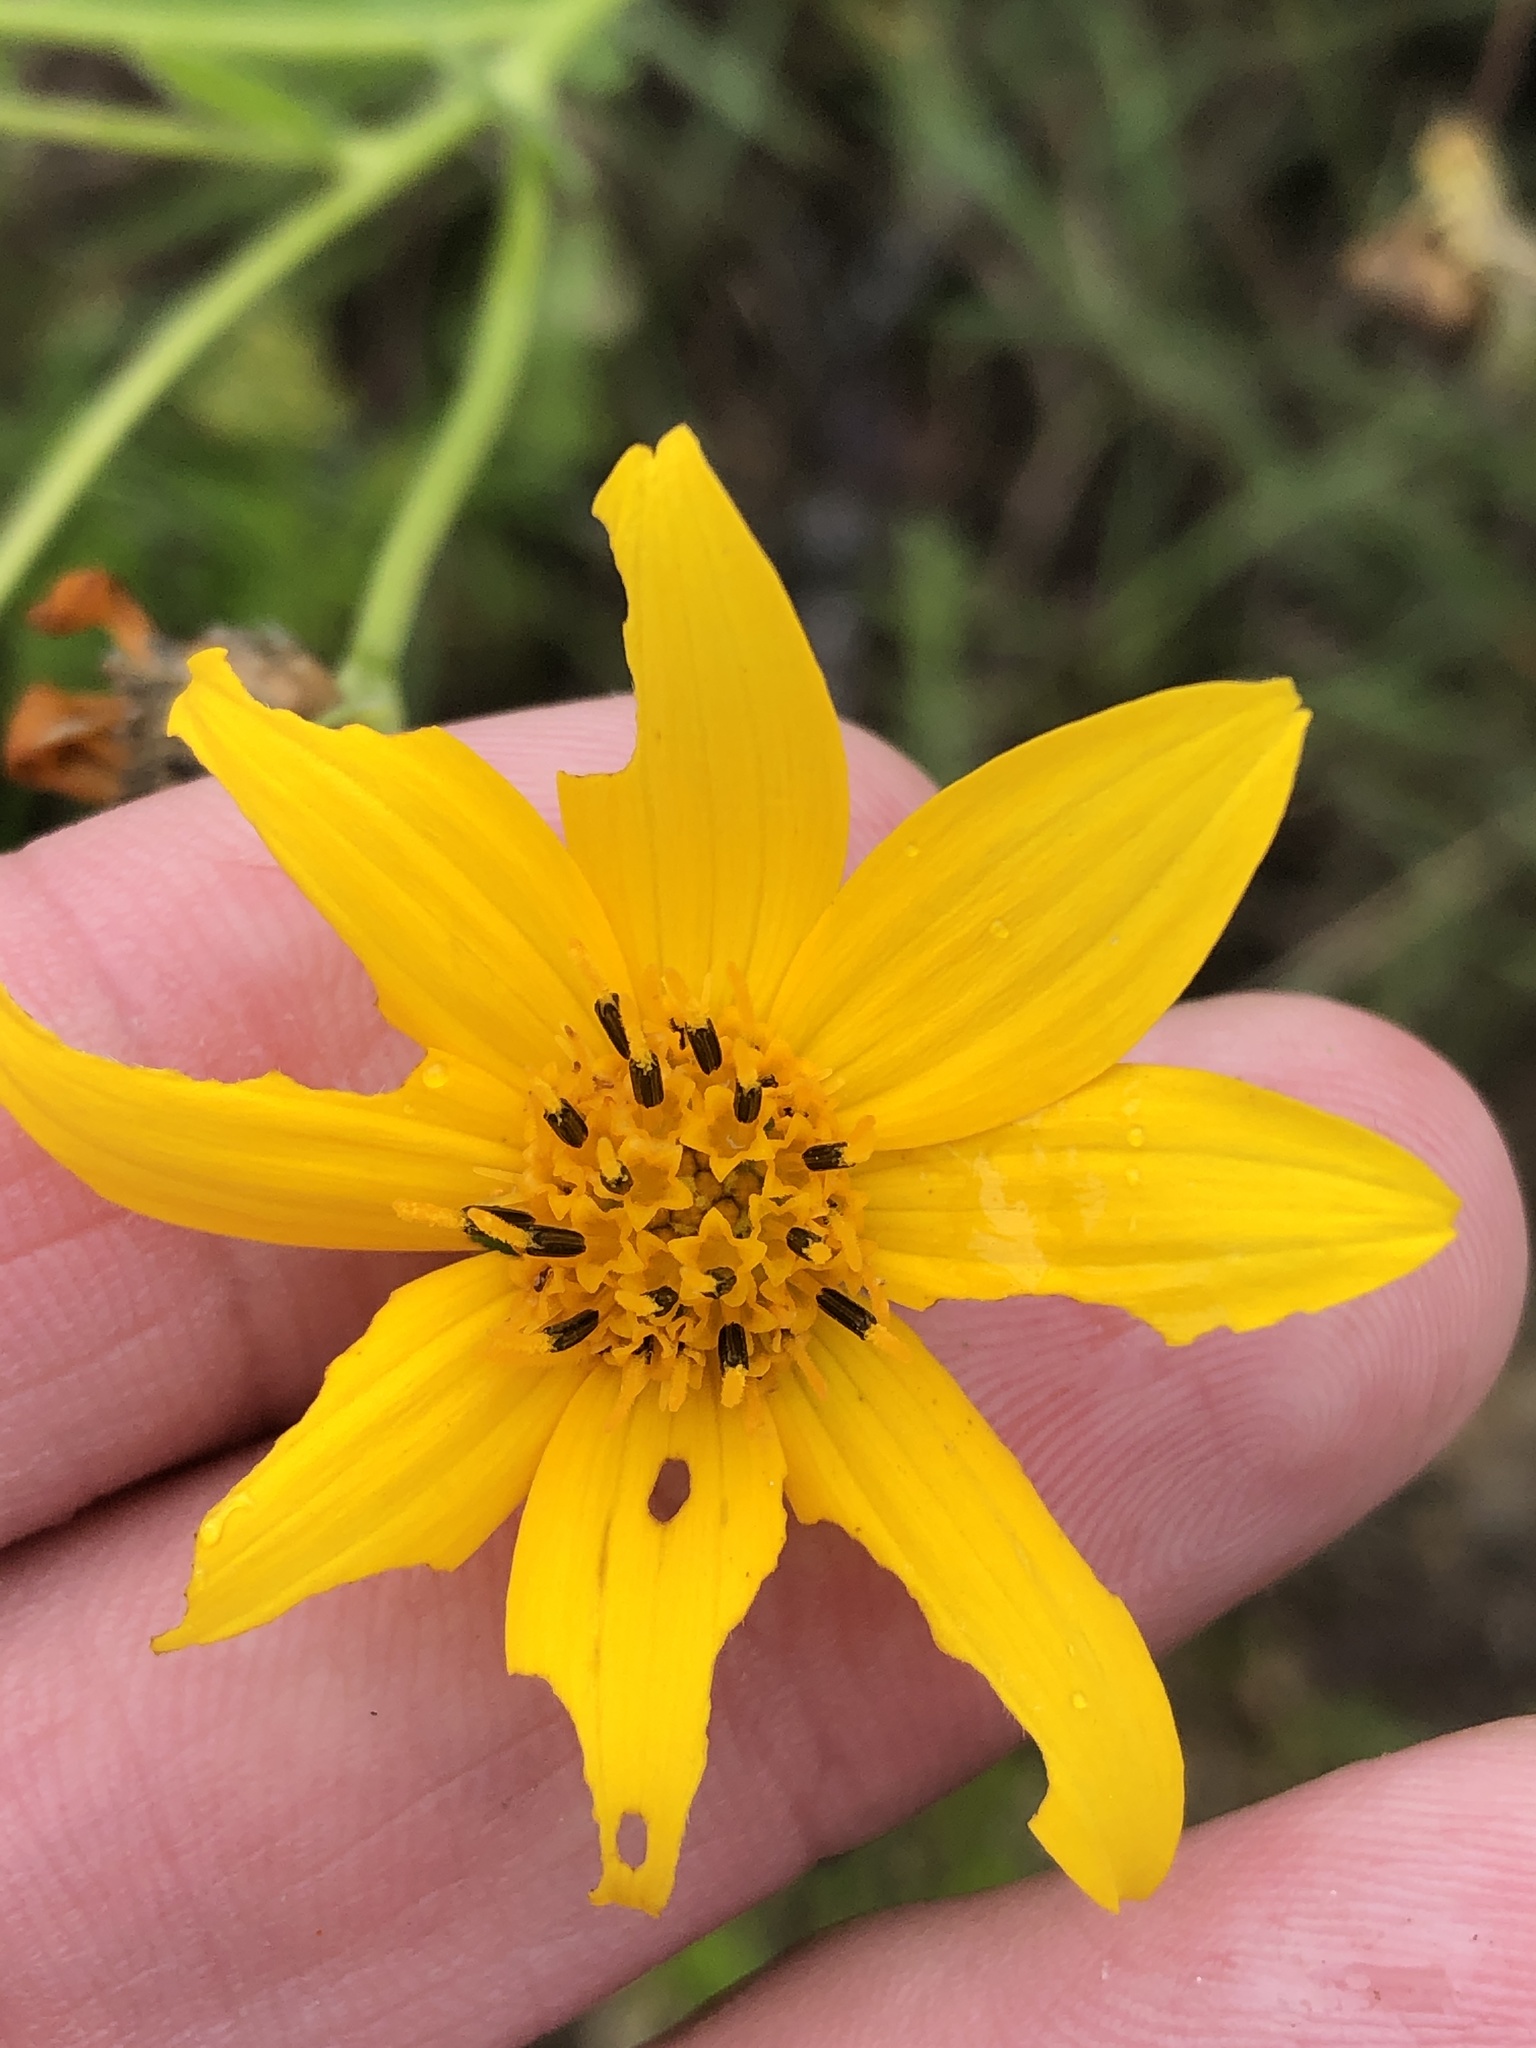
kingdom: Plantae
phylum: Tracheophyta
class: Magnoliopsida
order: Asterales
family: Asteraceae
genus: Engelmannia
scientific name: Engelmannia peristenia
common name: Engelmann's daisy
